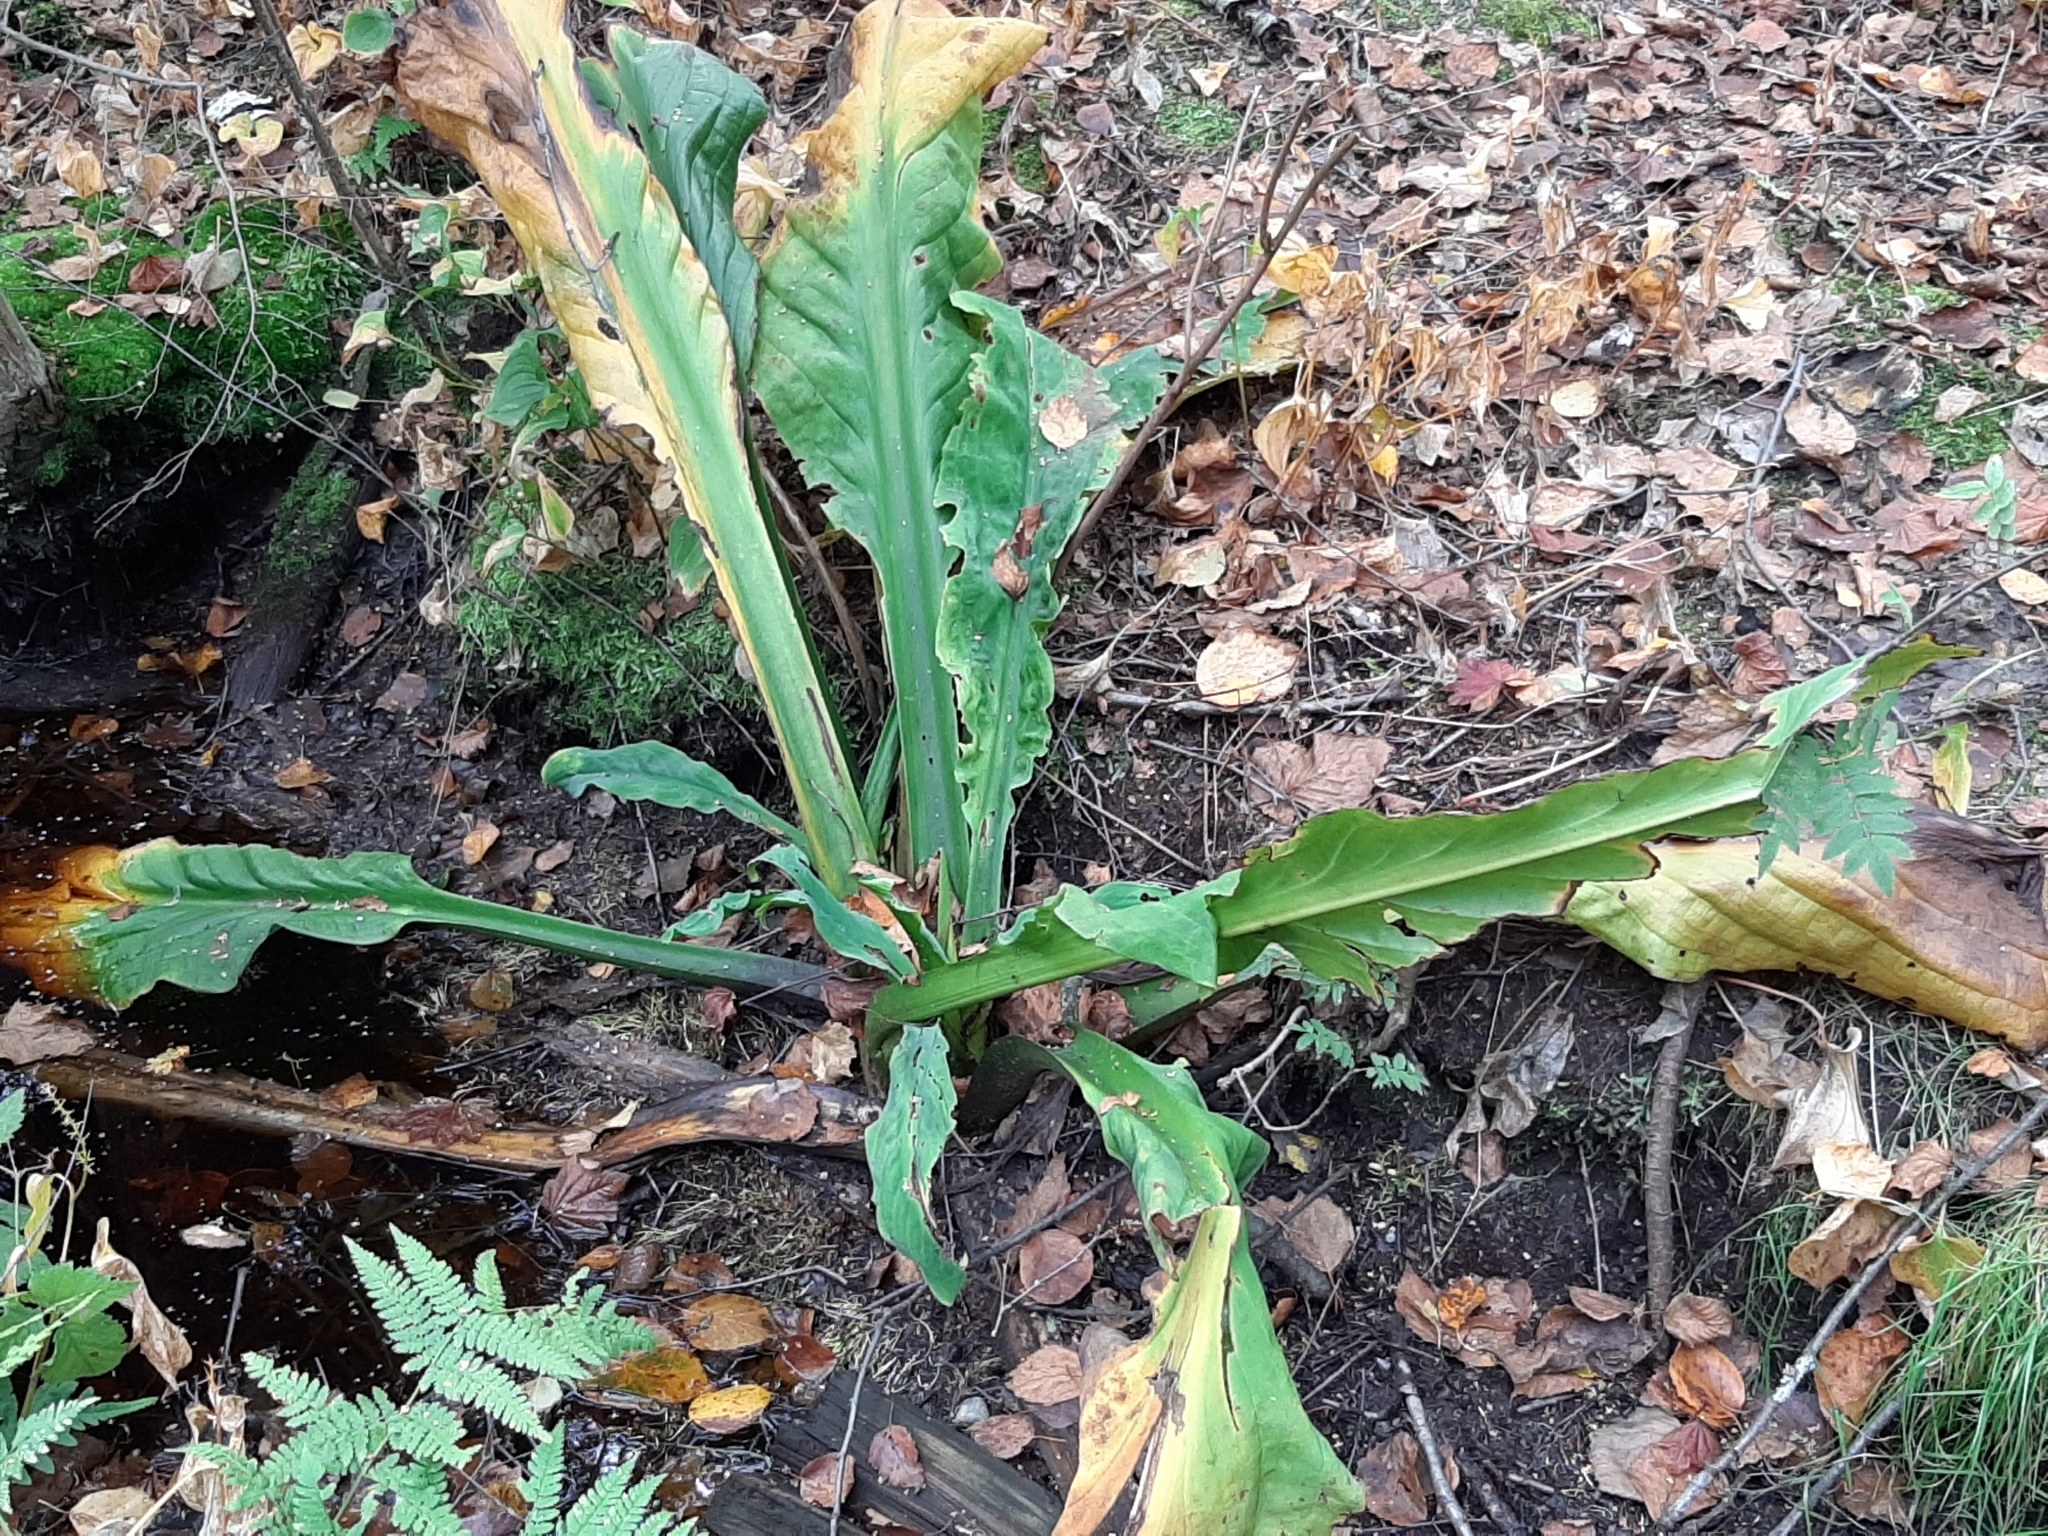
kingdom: Plantae
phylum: Tracheophyta
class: Liliopsida
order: Alismatales
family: Araceae
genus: Lysichiton
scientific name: Lysichiton americanus
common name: American skunk cabbage
